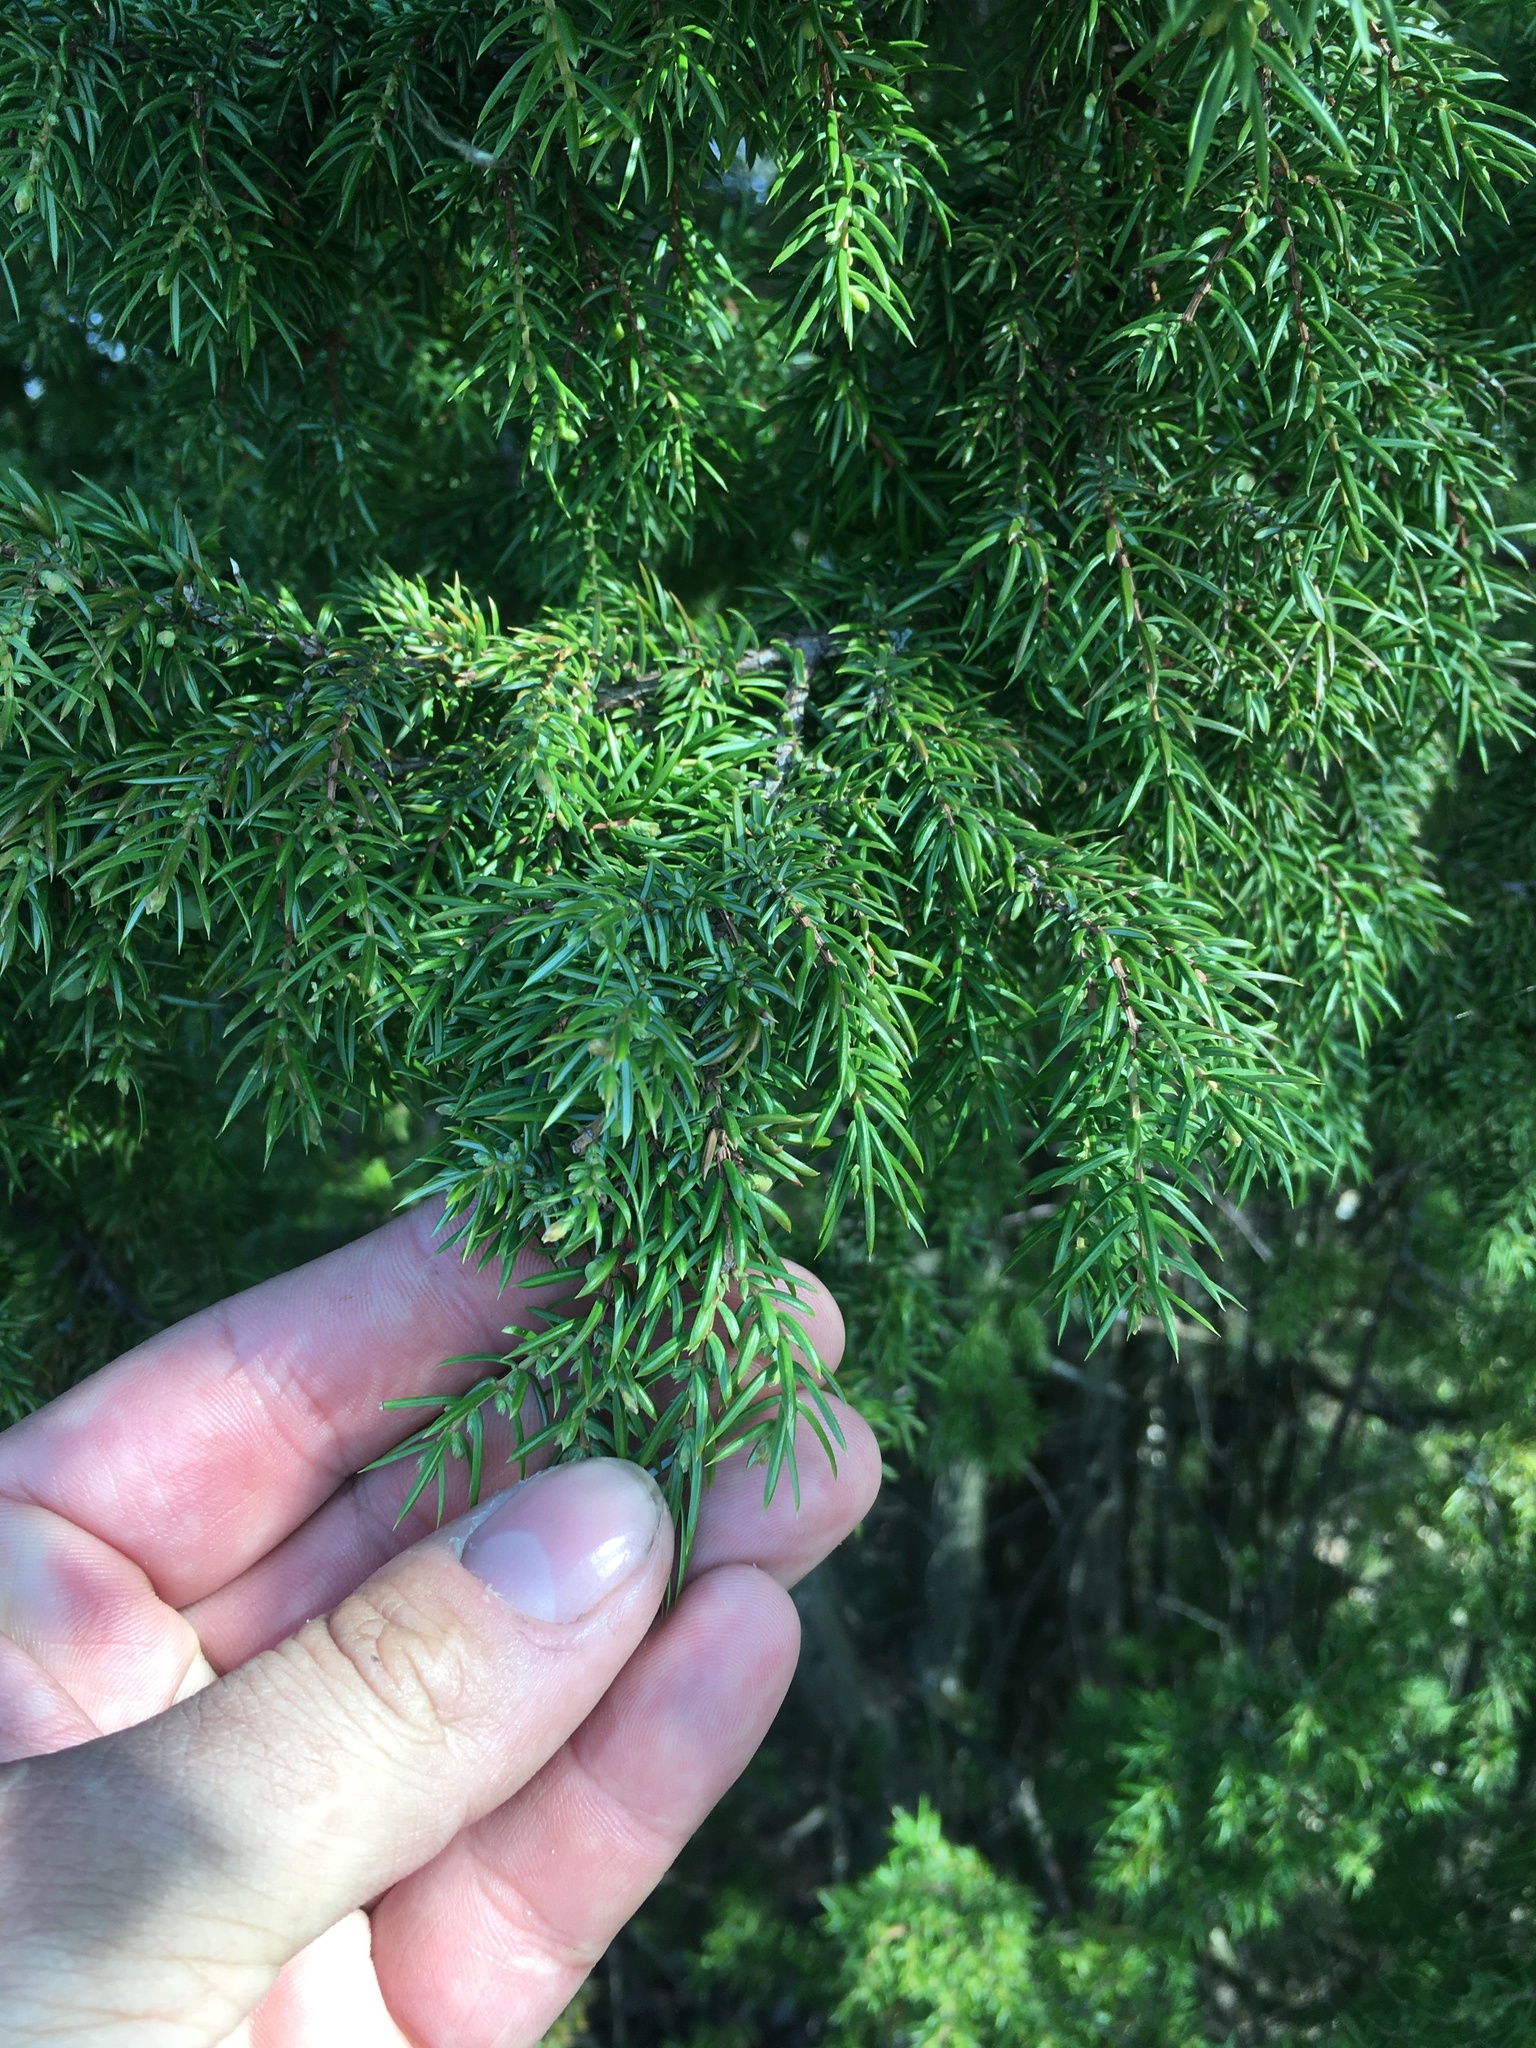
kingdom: Plantae
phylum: Tracheophyta
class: Pinopsida
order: Pinales
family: Cupressaceae
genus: Juniperus
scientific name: Juniperus communis
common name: Common juniper
